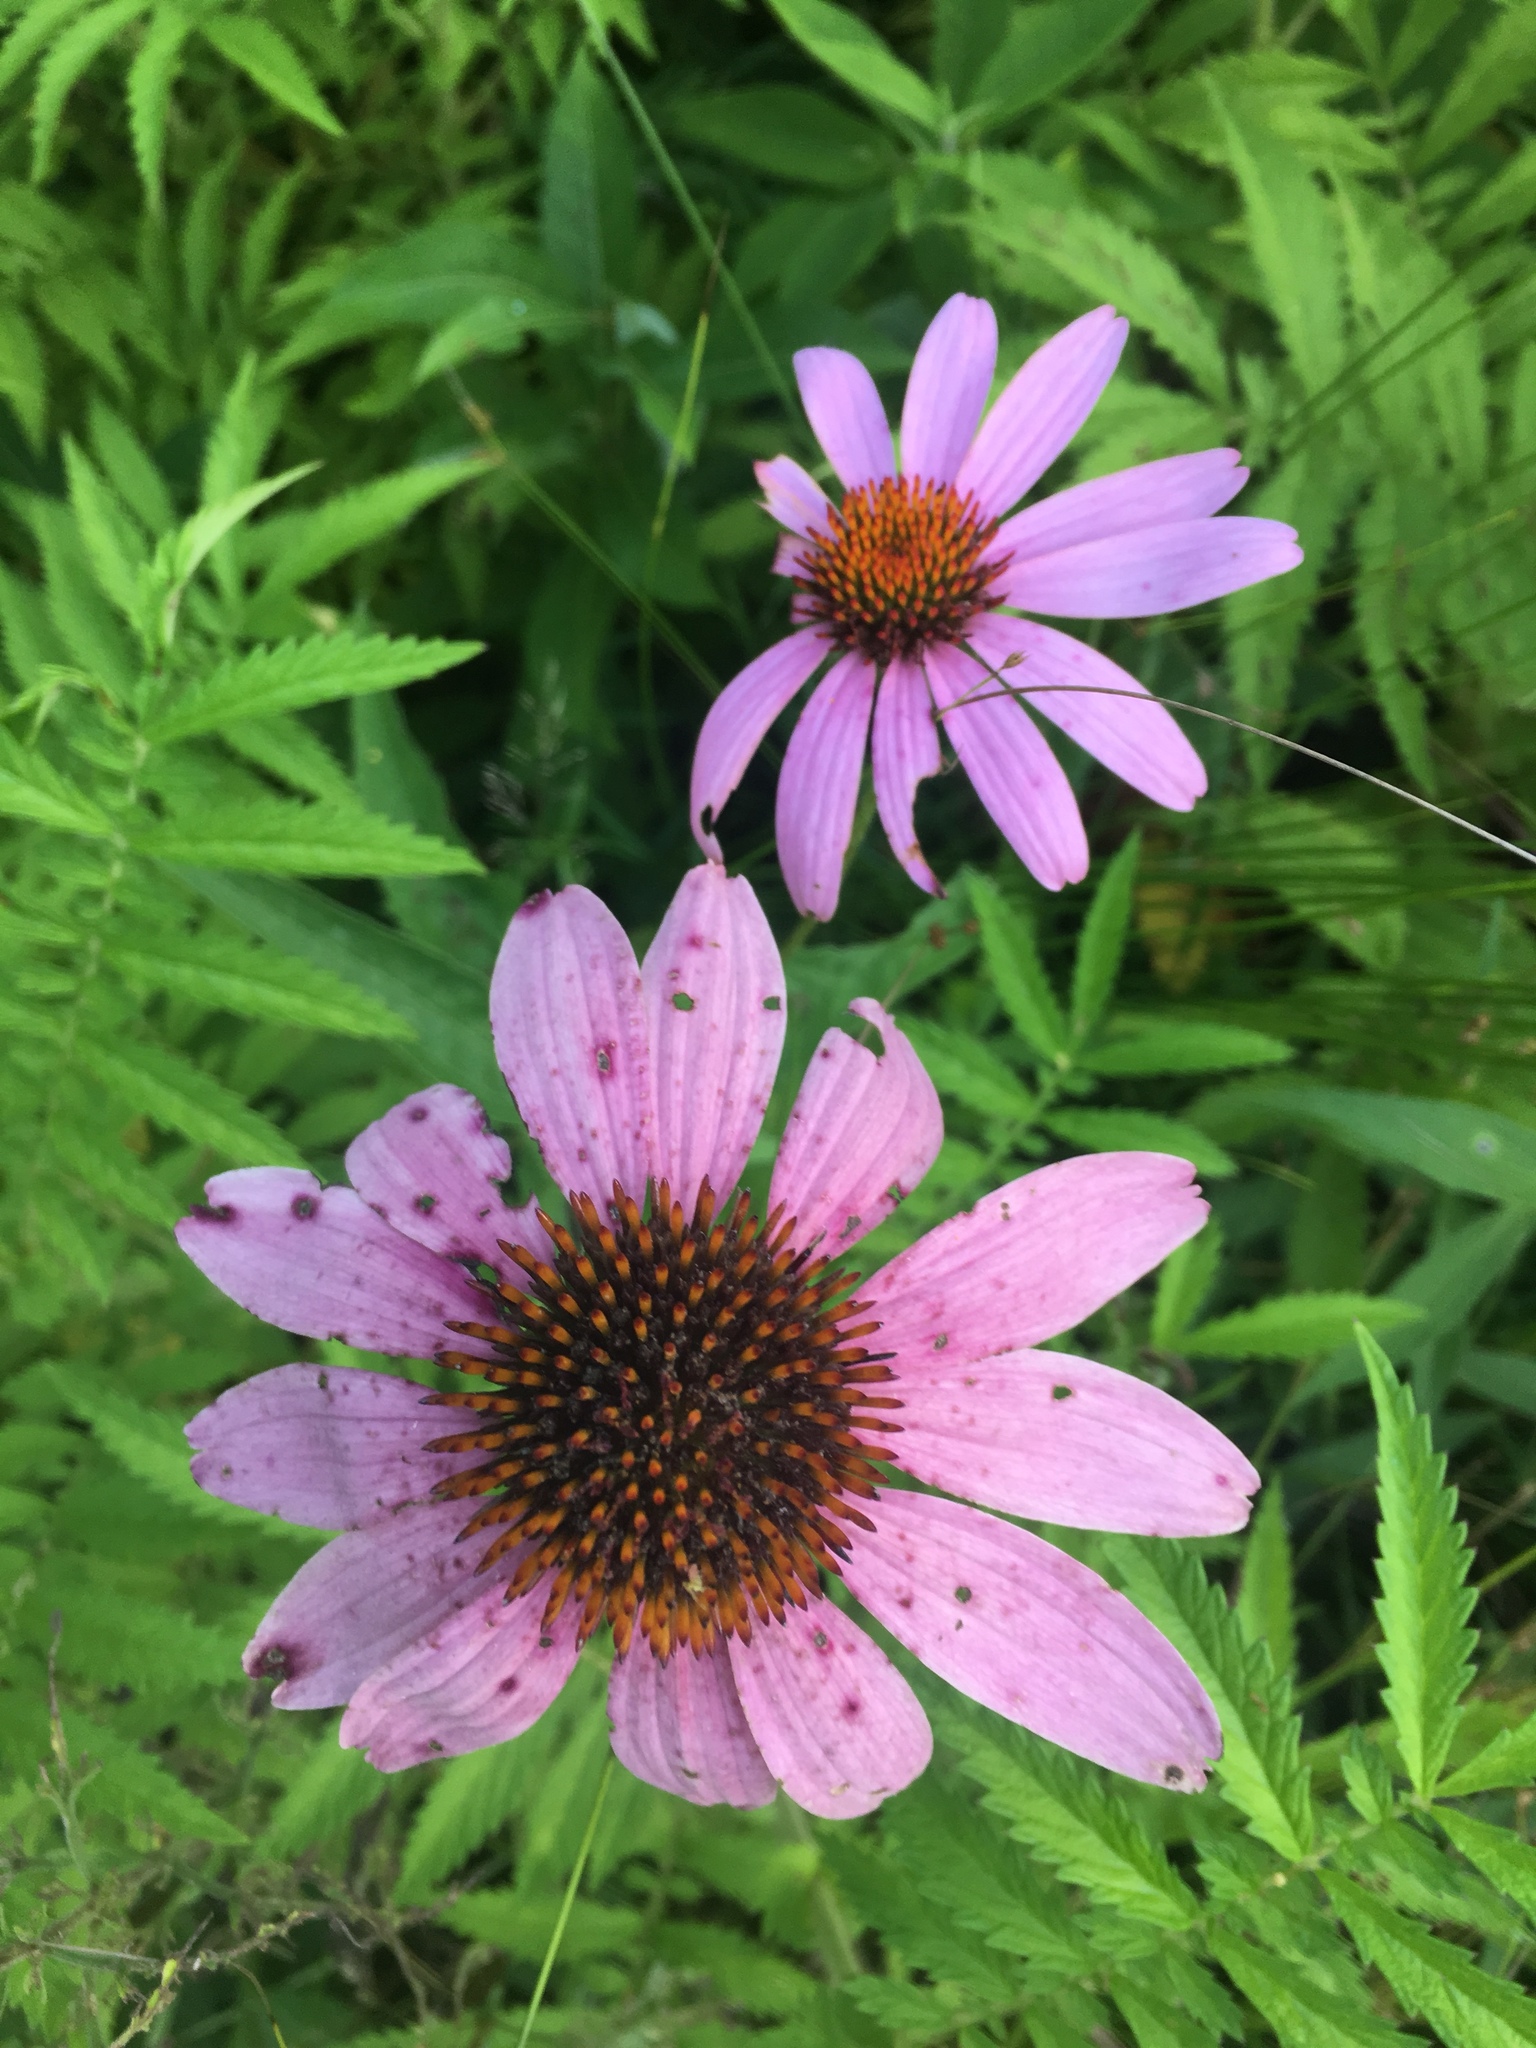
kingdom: Plantae
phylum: Tracheophyta
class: Magnoliopsida
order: Asterales
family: Asteraceae
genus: Echinacea
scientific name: Echinacea purpurea
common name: Broad-leaved purple coneflower
